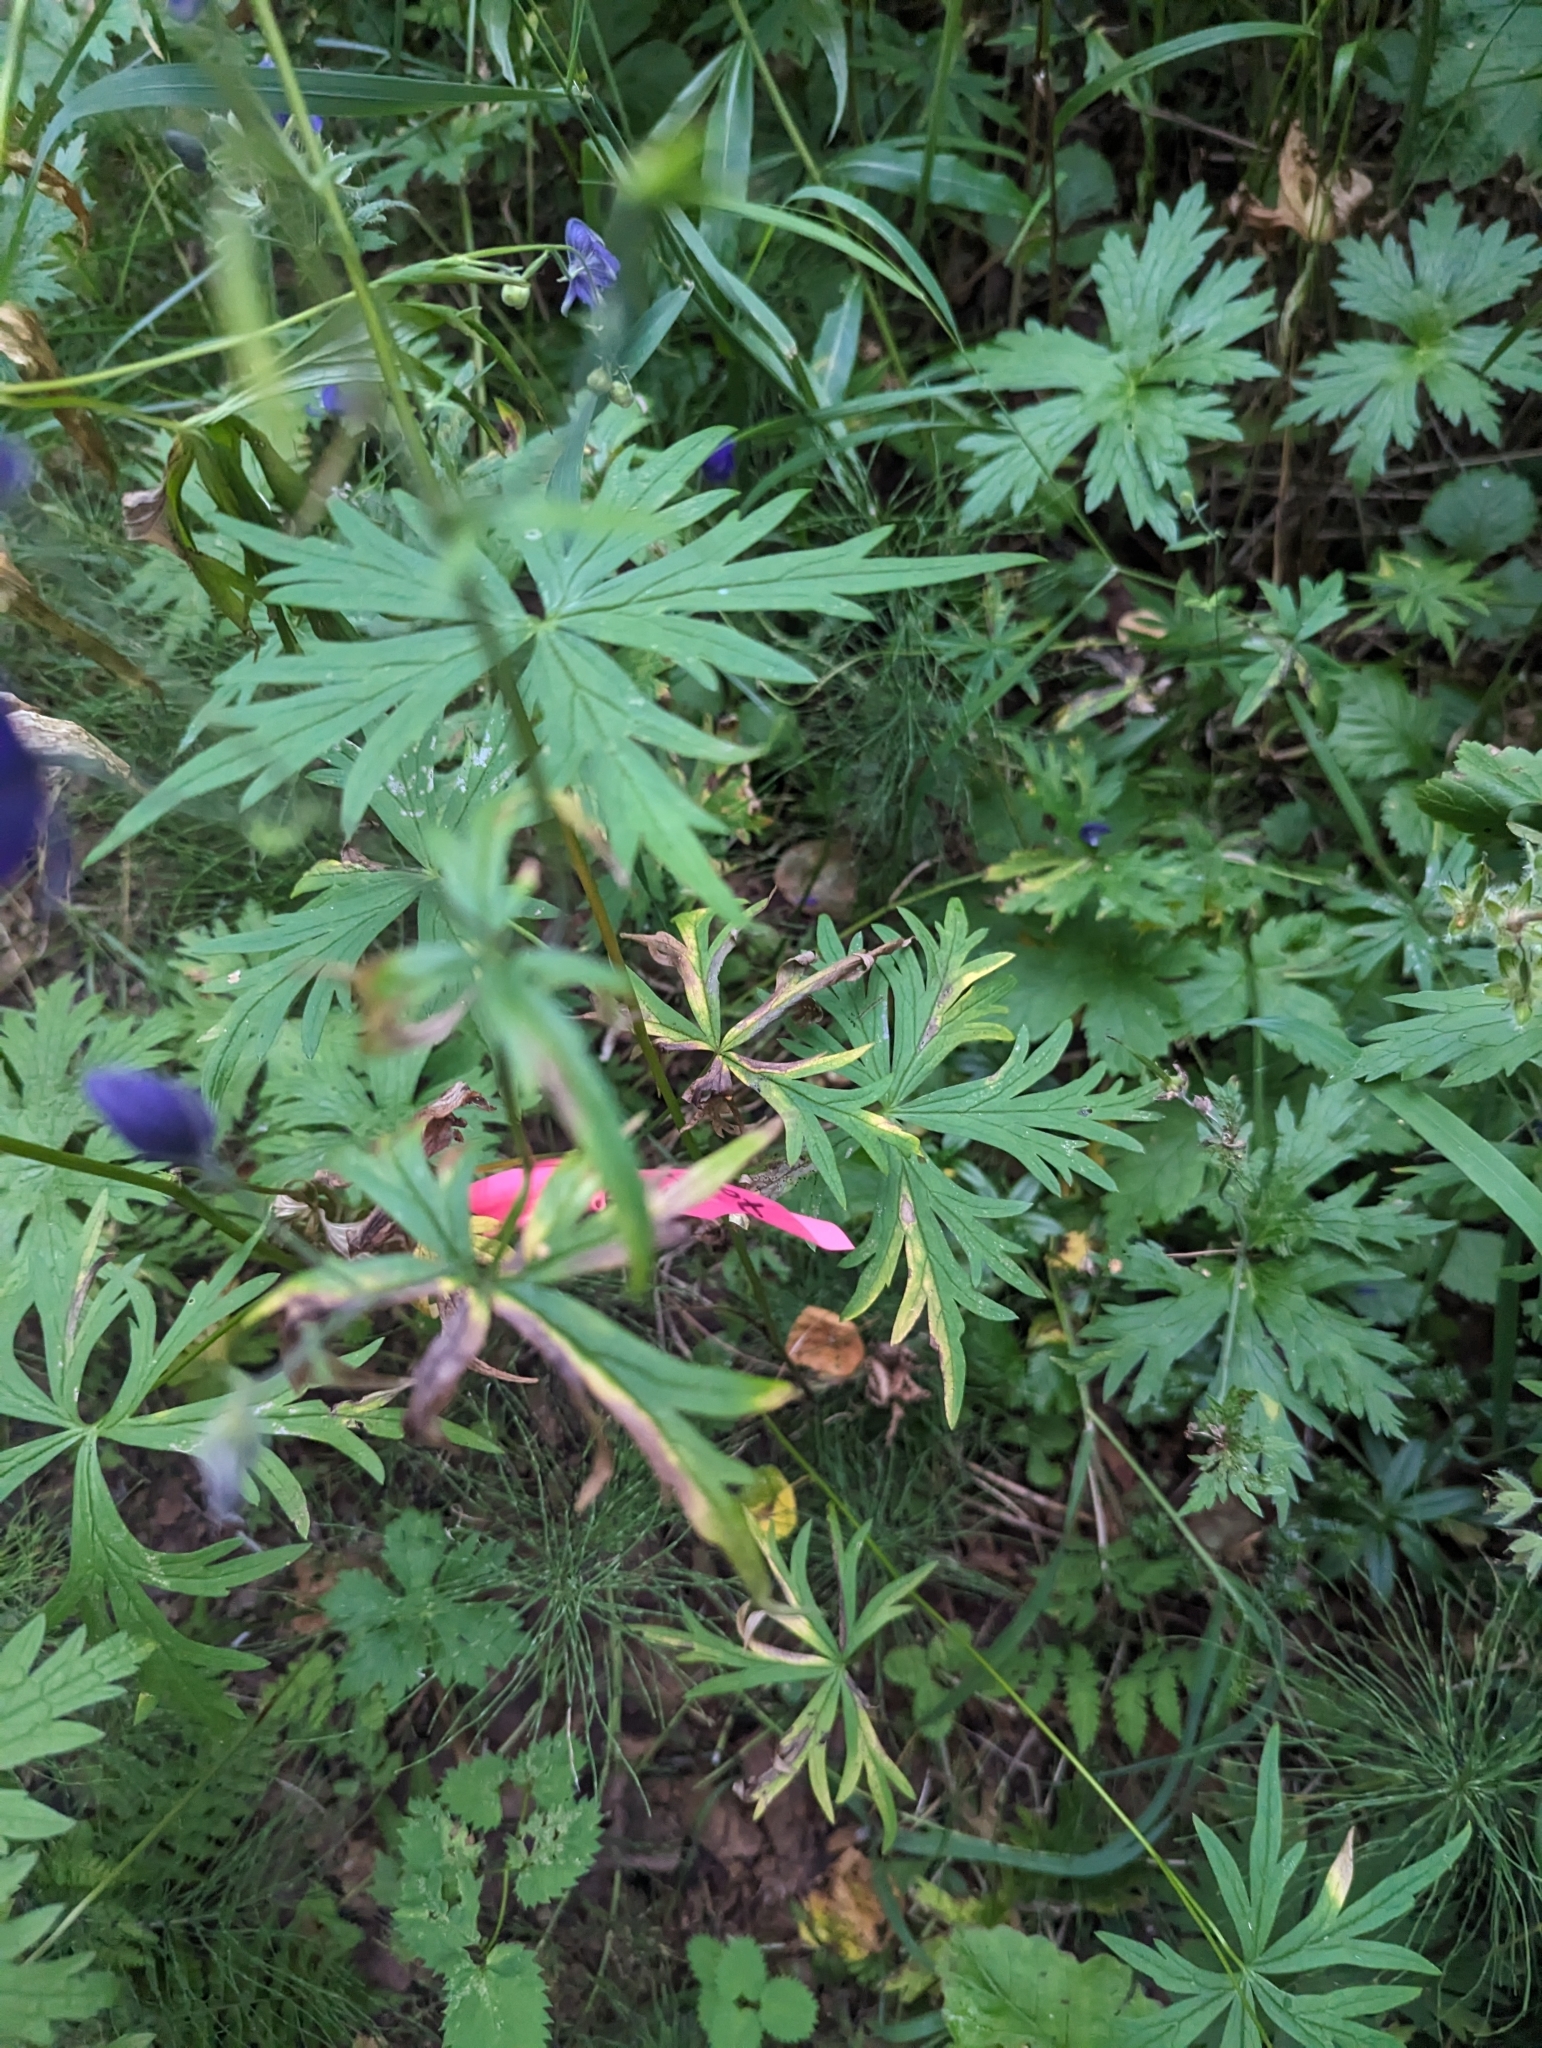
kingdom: Plantae
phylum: Tracheophyta
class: Magnoliopsida
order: Ranunculales
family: Ranunculaceae
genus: Aconitum
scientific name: Aconitum delphiniifolium
